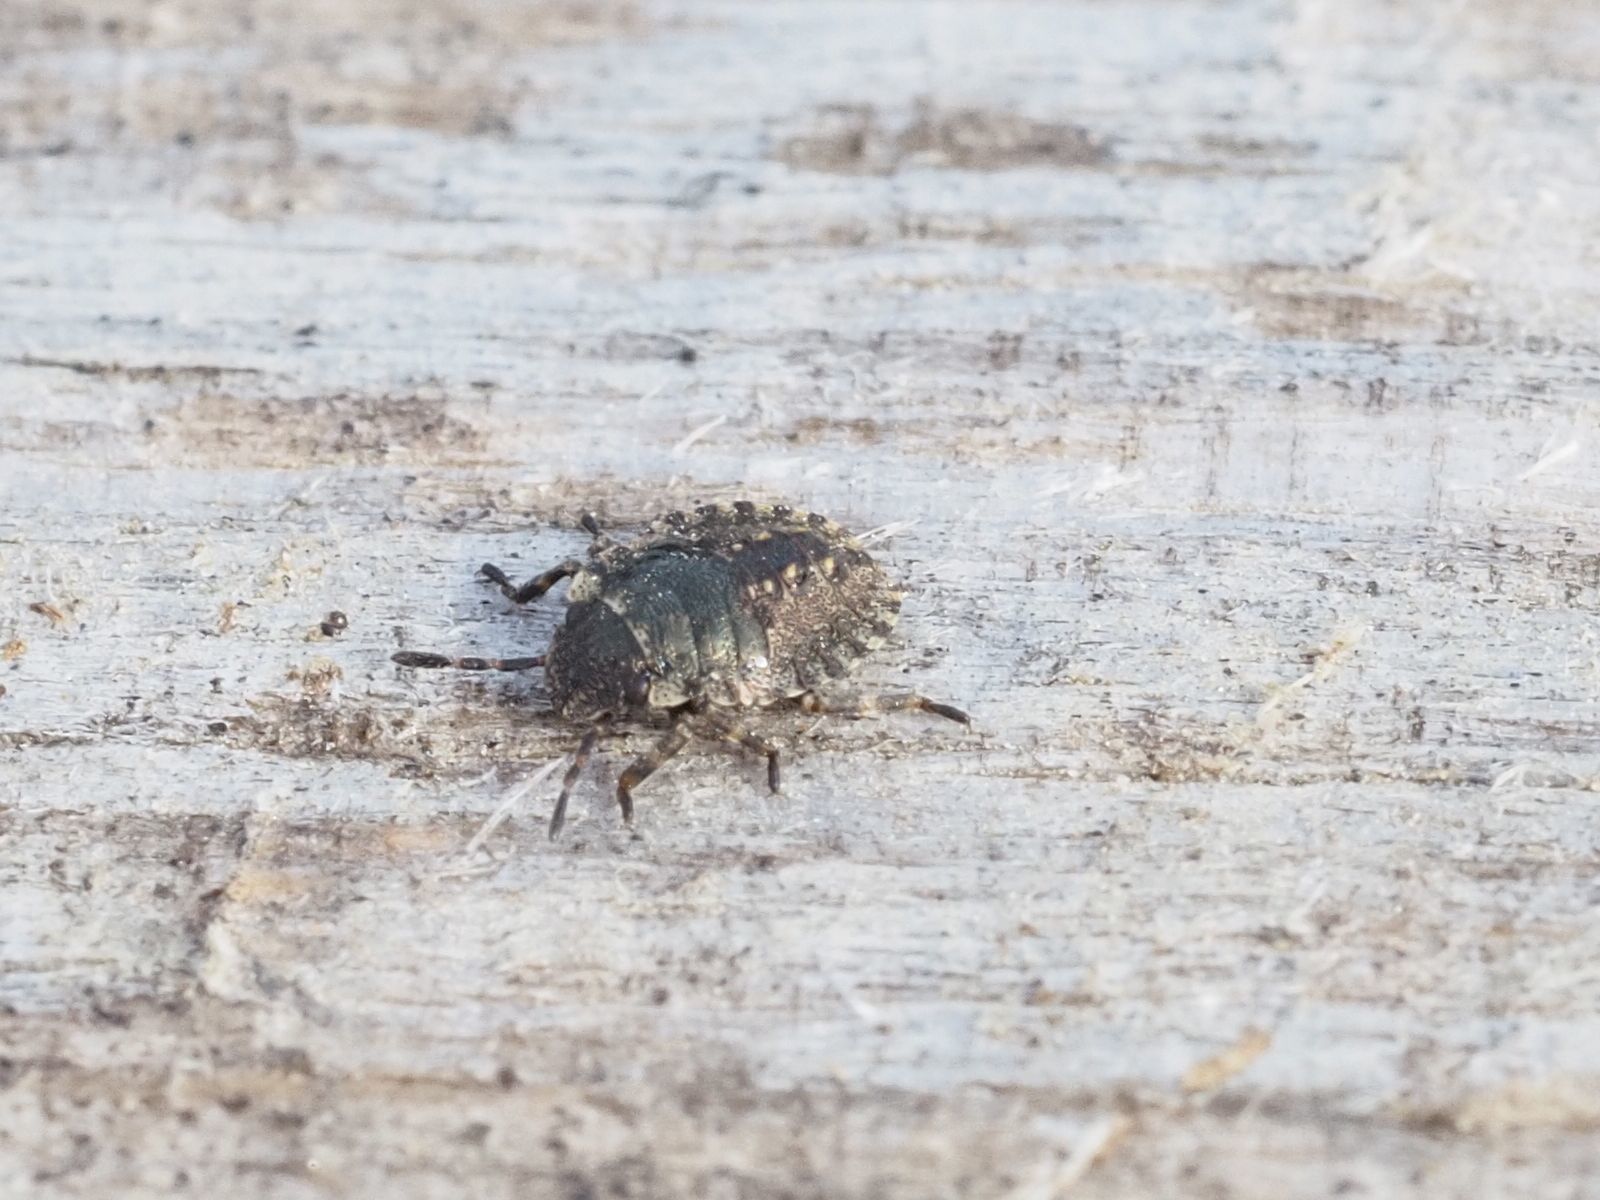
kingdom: Animalia
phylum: Arthropoda
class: Insecta
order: Hemiptera
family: Pentatomidae
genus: Pentatoma
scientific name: Pentatoma rufipes
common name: Forest bug
